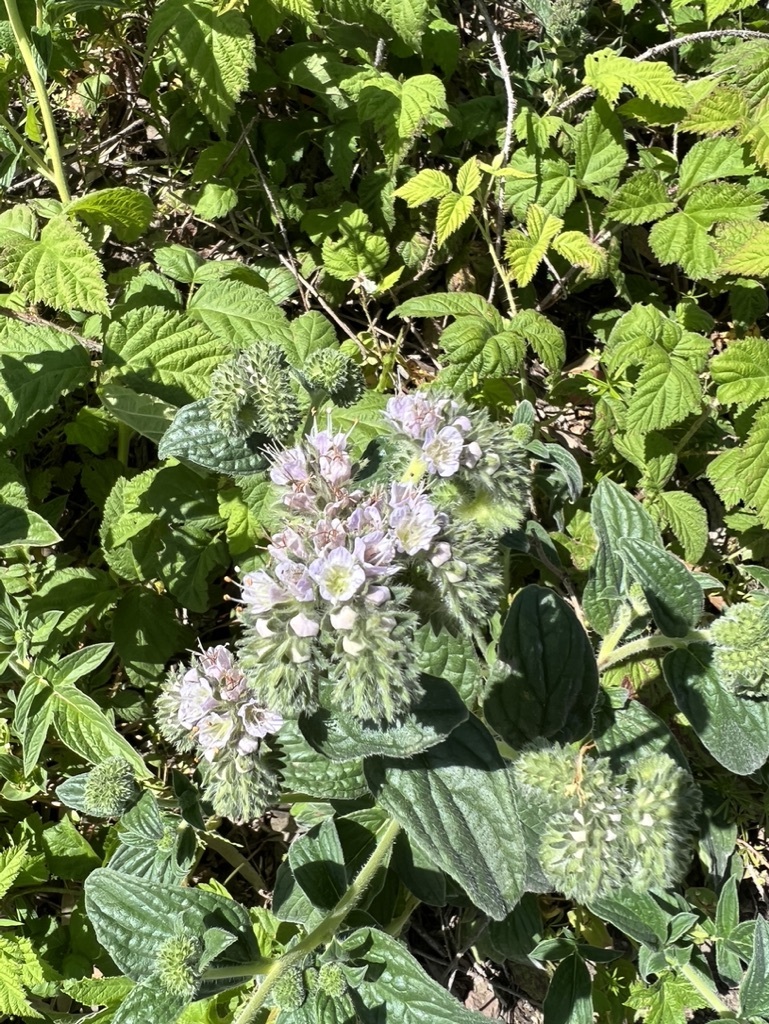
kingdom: Plantae
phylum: Tracheophyta
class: Magnoliopsida
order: Boraginales
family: Hydrophyllaceae
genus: Phacelia
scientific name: Phacelia californica
